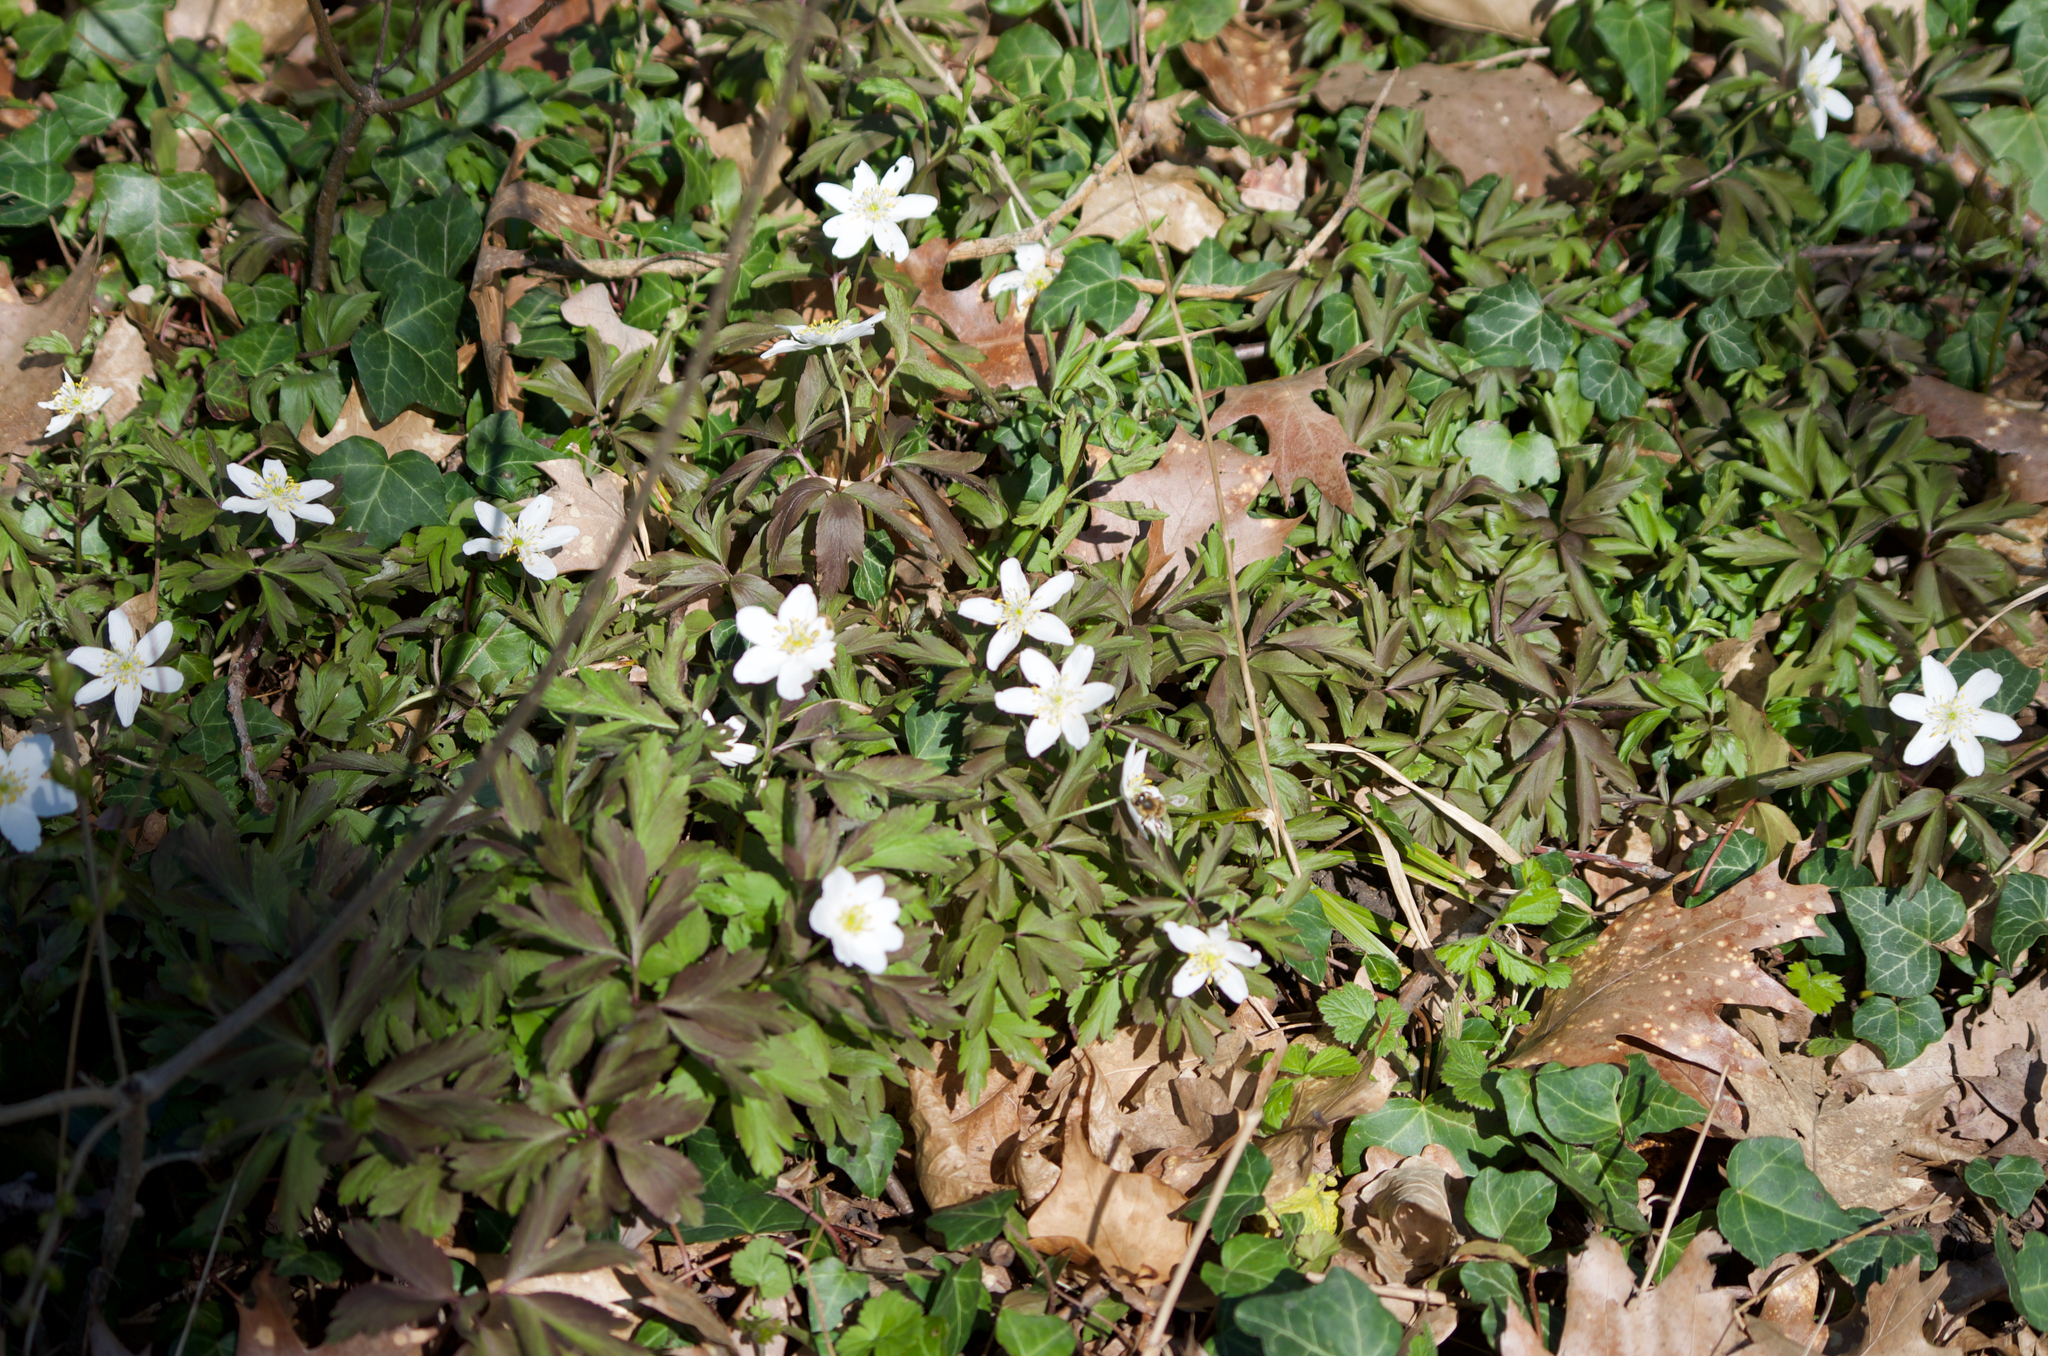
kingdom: Plantae
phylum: Tracheophyta
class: Magnoliopsida
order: Ranunculales
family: Ranunculaceae
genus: Anemone
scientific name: Anemone nemorosa
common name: Wood anemone
